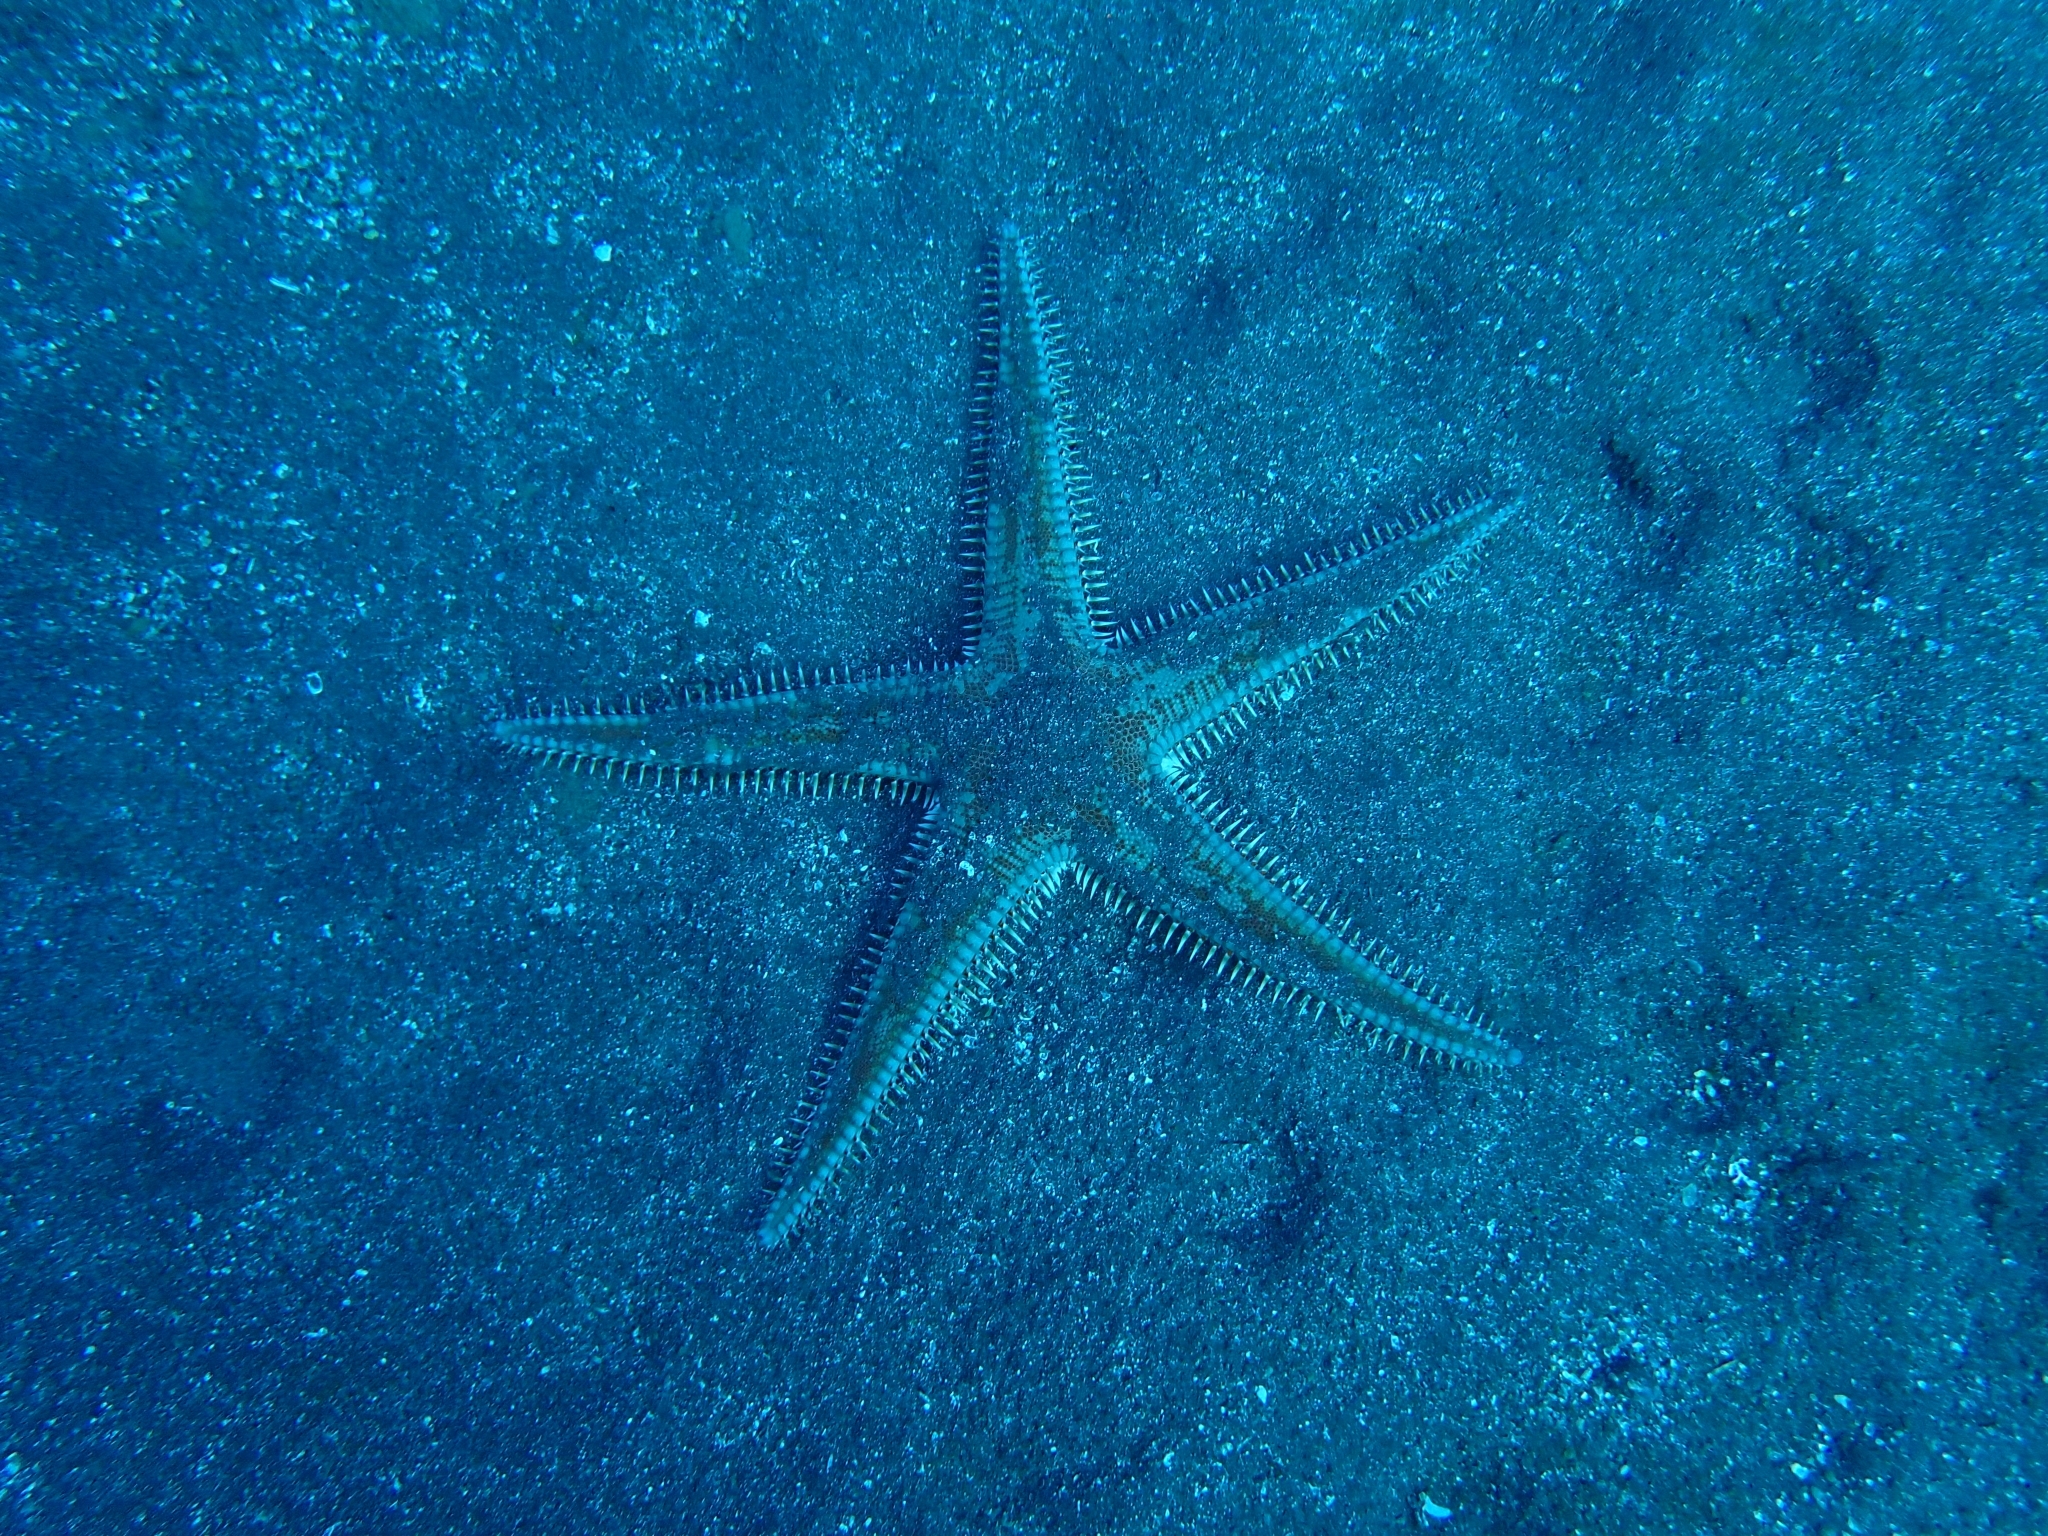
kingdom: Animalia
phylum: Echinodermata
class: Asteroidea
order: Paxillosida
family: Astropectinidae
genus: Astropecten
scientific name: Astropecten aranciacus
